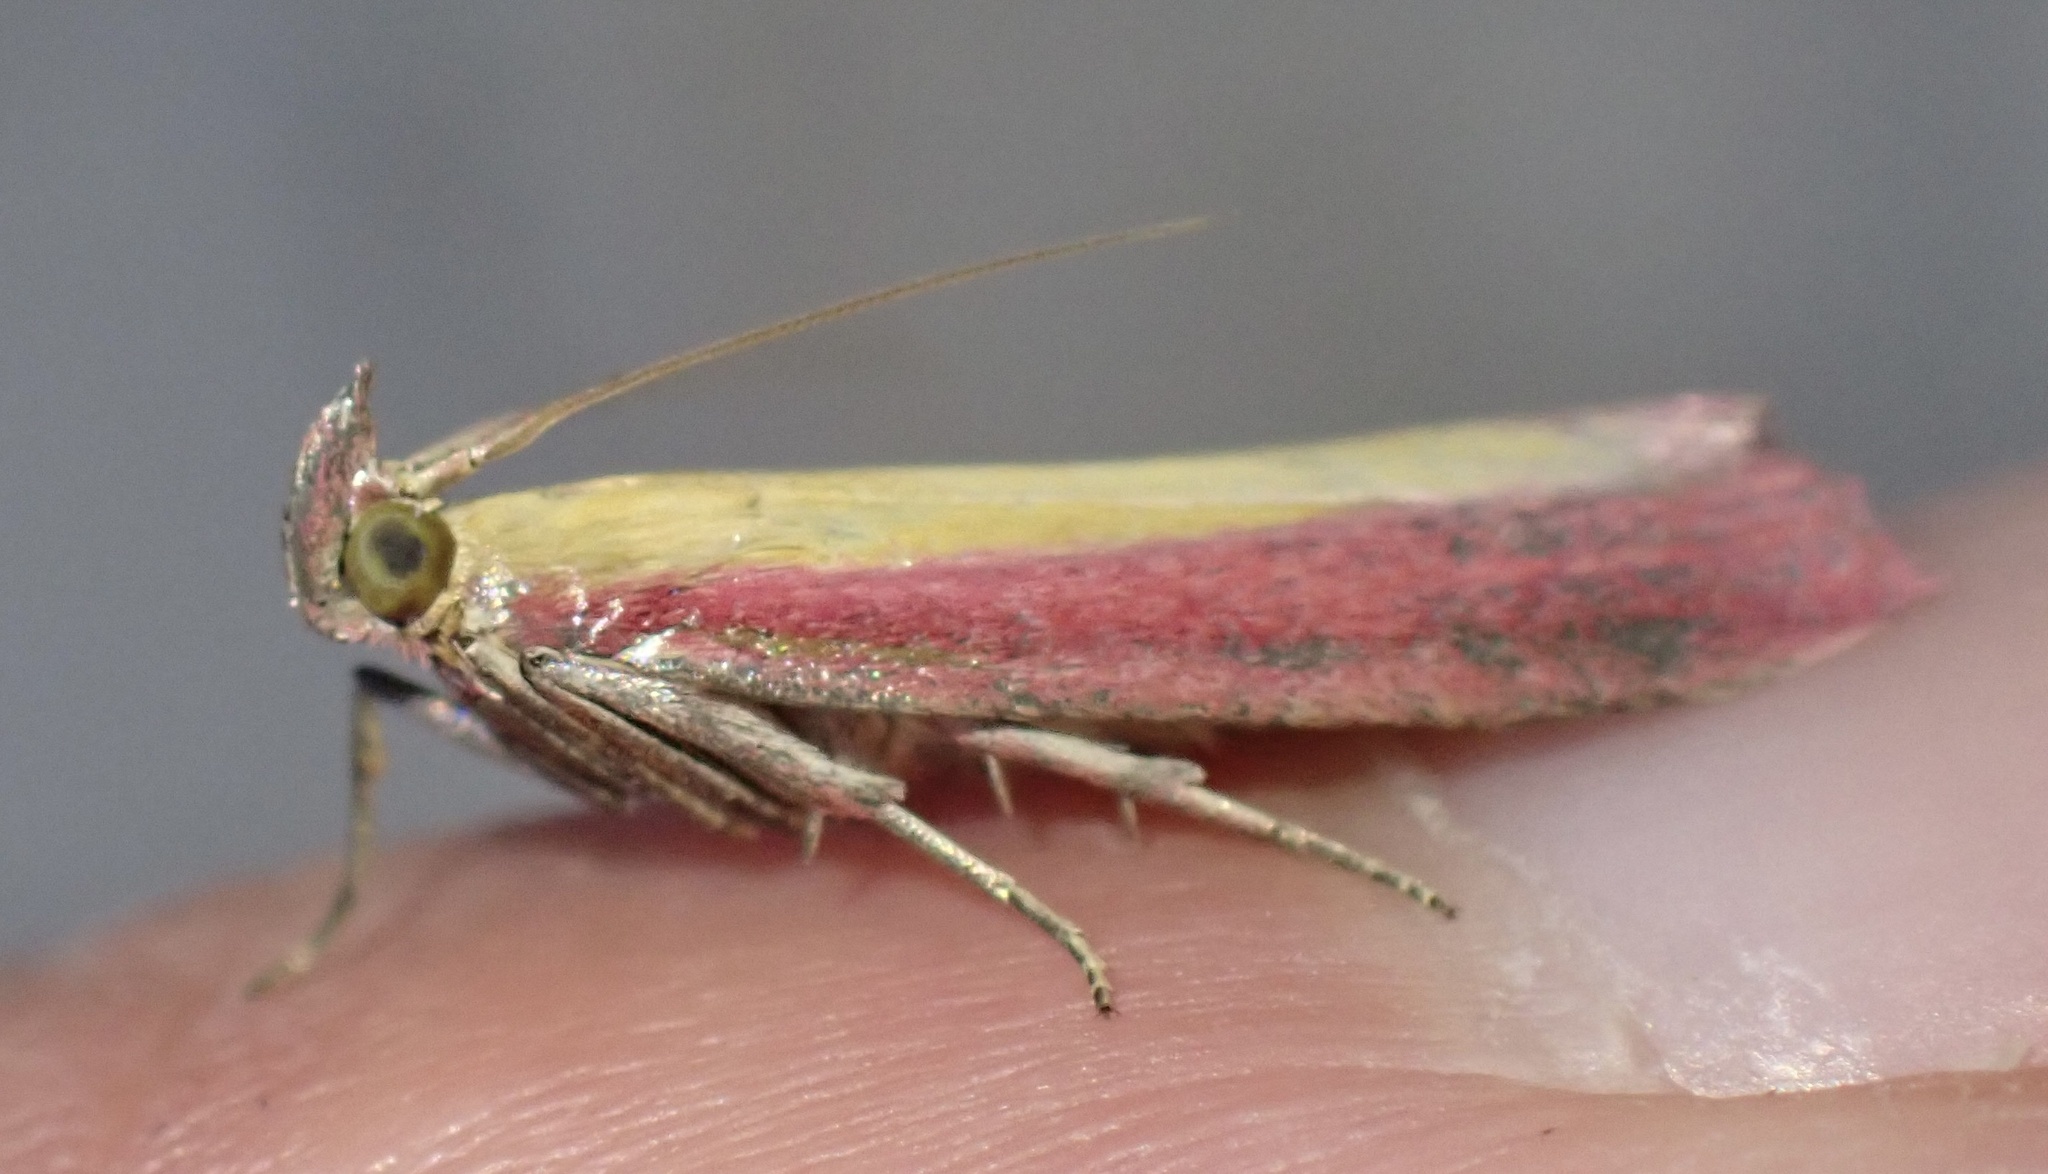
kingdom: Animalia
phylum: Arthropoda
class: Insecta
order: Lepidoptera
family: Pyralidae
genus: Oncocera
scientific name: Oncocera semirubella
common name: Rosy-striped knot-horn
